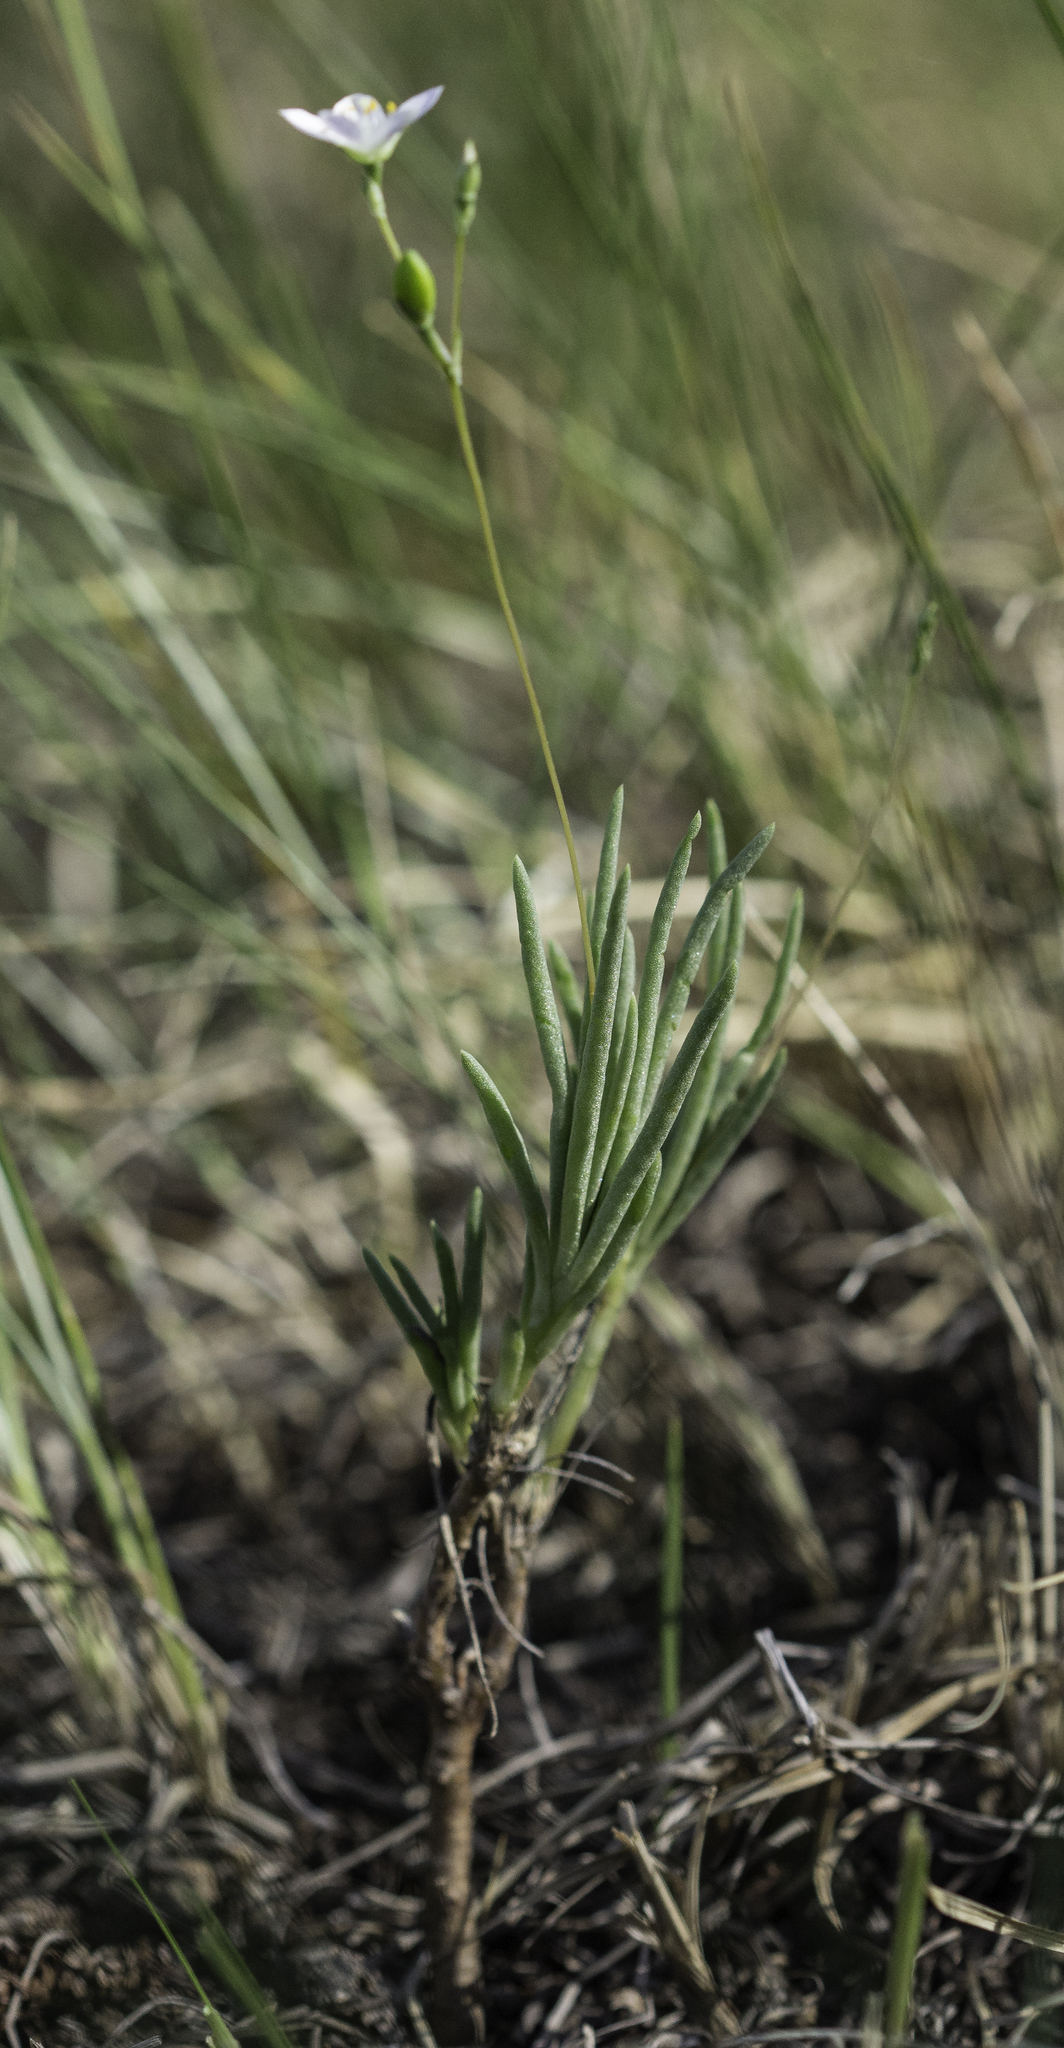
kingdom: Plantae
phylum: Tracheophyta
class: Magnoliopsida
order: Caryophyllales
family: Montiaceae
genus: Phemeranthus
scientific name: Phemeranthus confertiflorus
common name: New mexico fameflower
